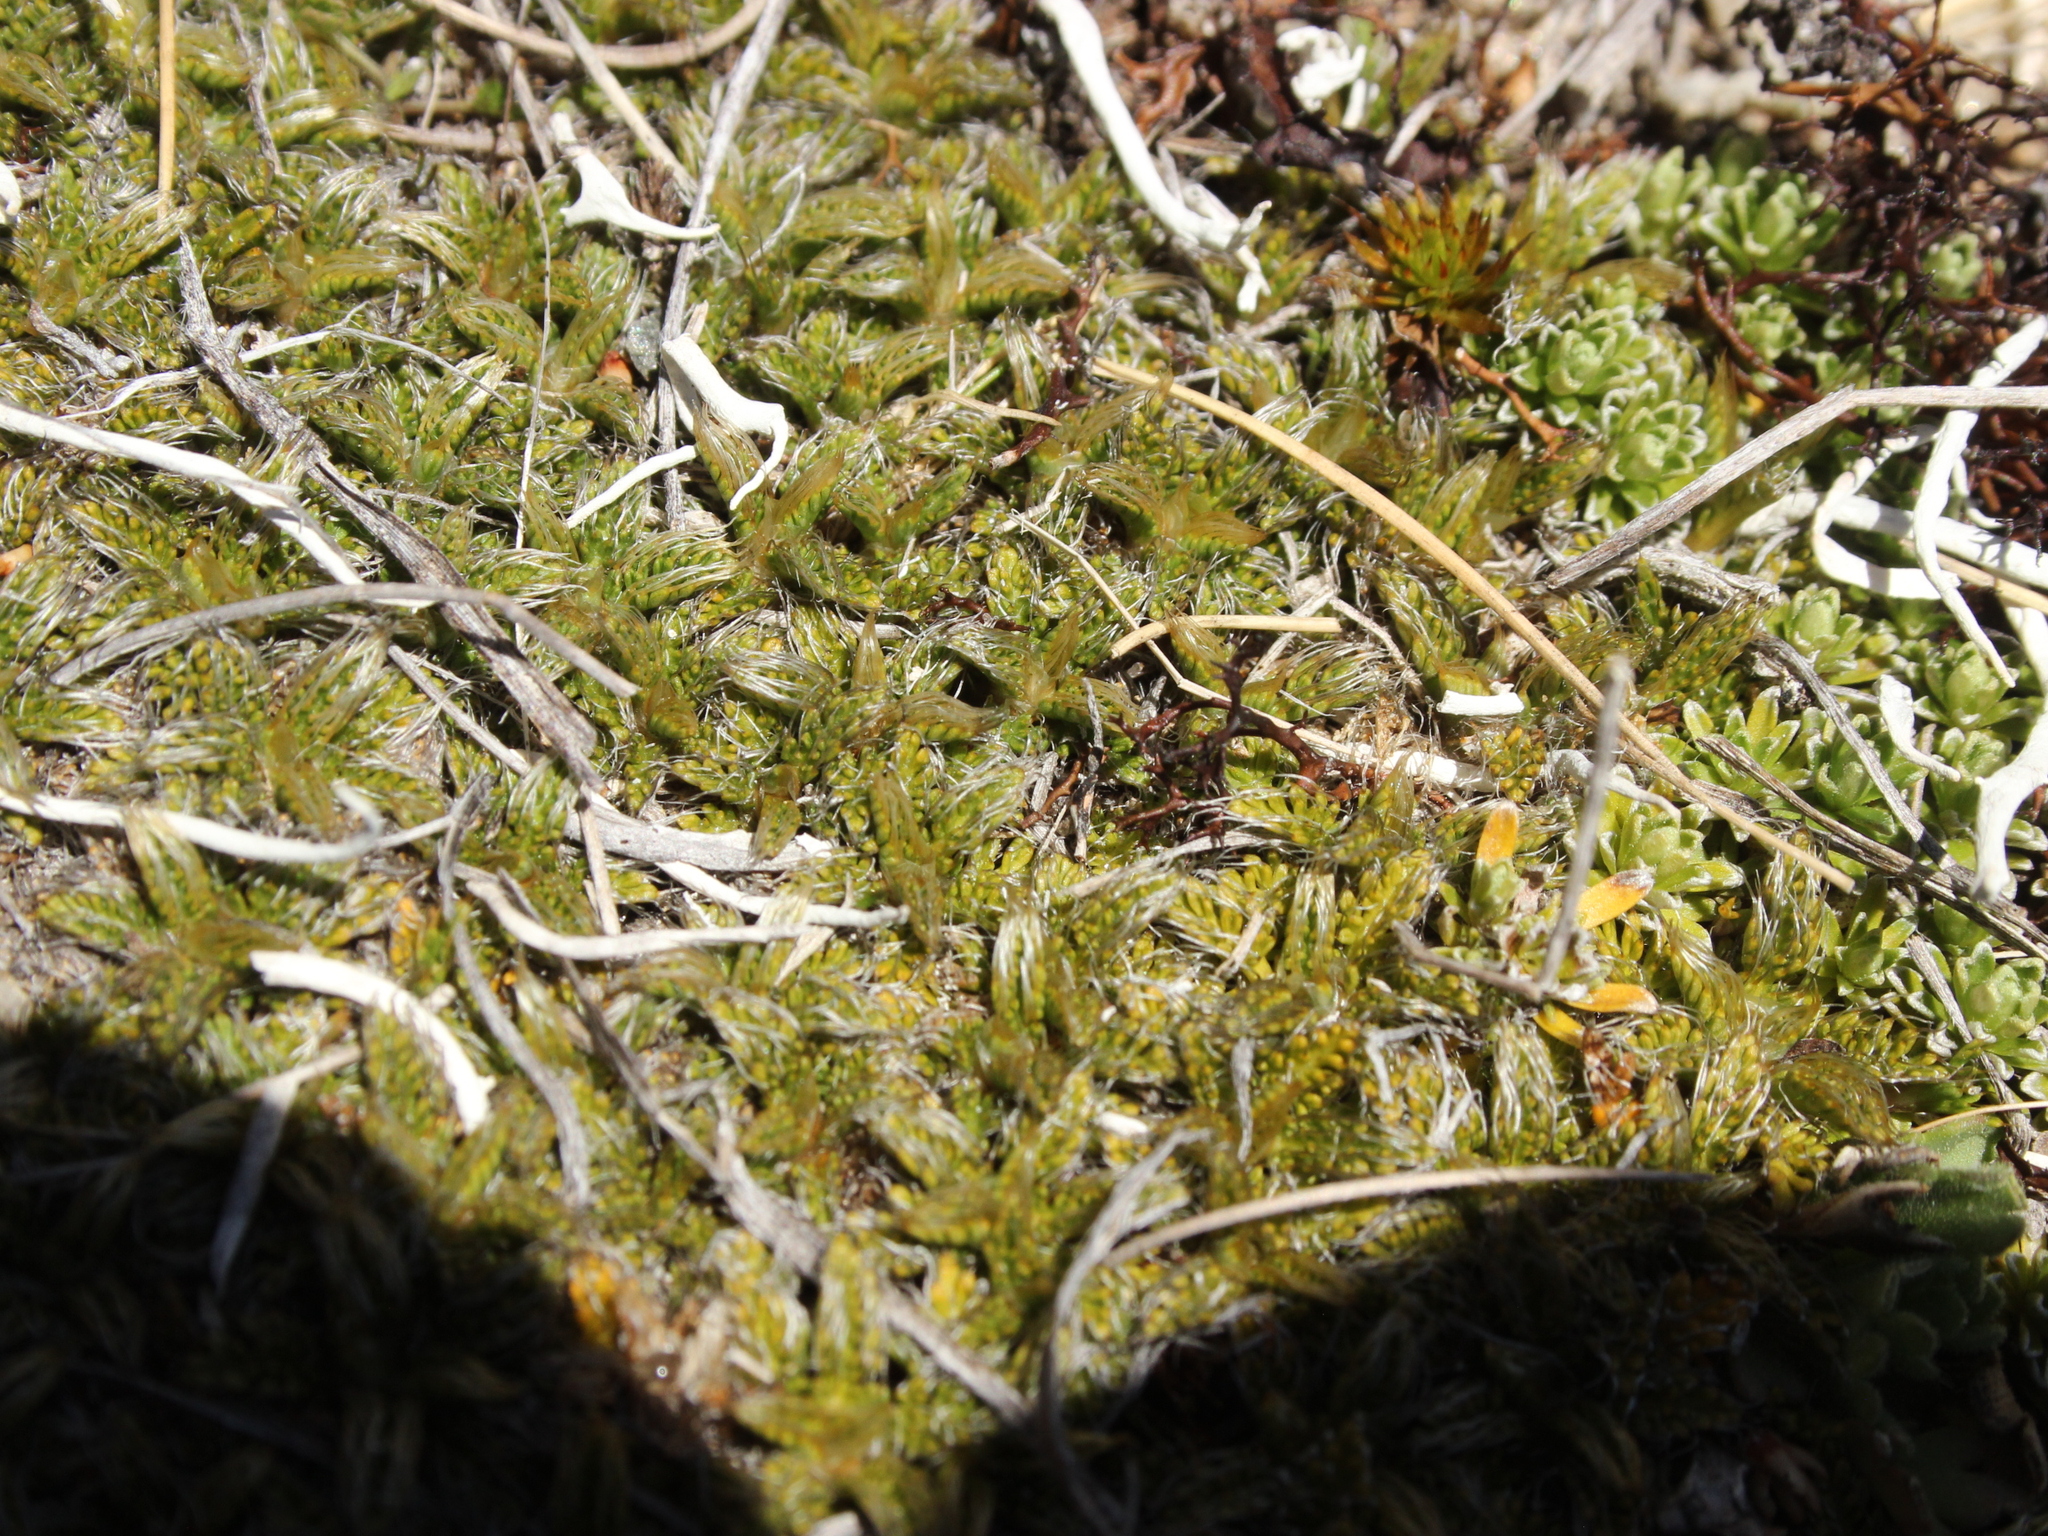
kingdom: Plantae
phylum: Tracheophyta
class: Magnoliopsida
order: Apiales
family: Apiaceae
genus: Anisotome
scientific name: Anisotome imbricata
